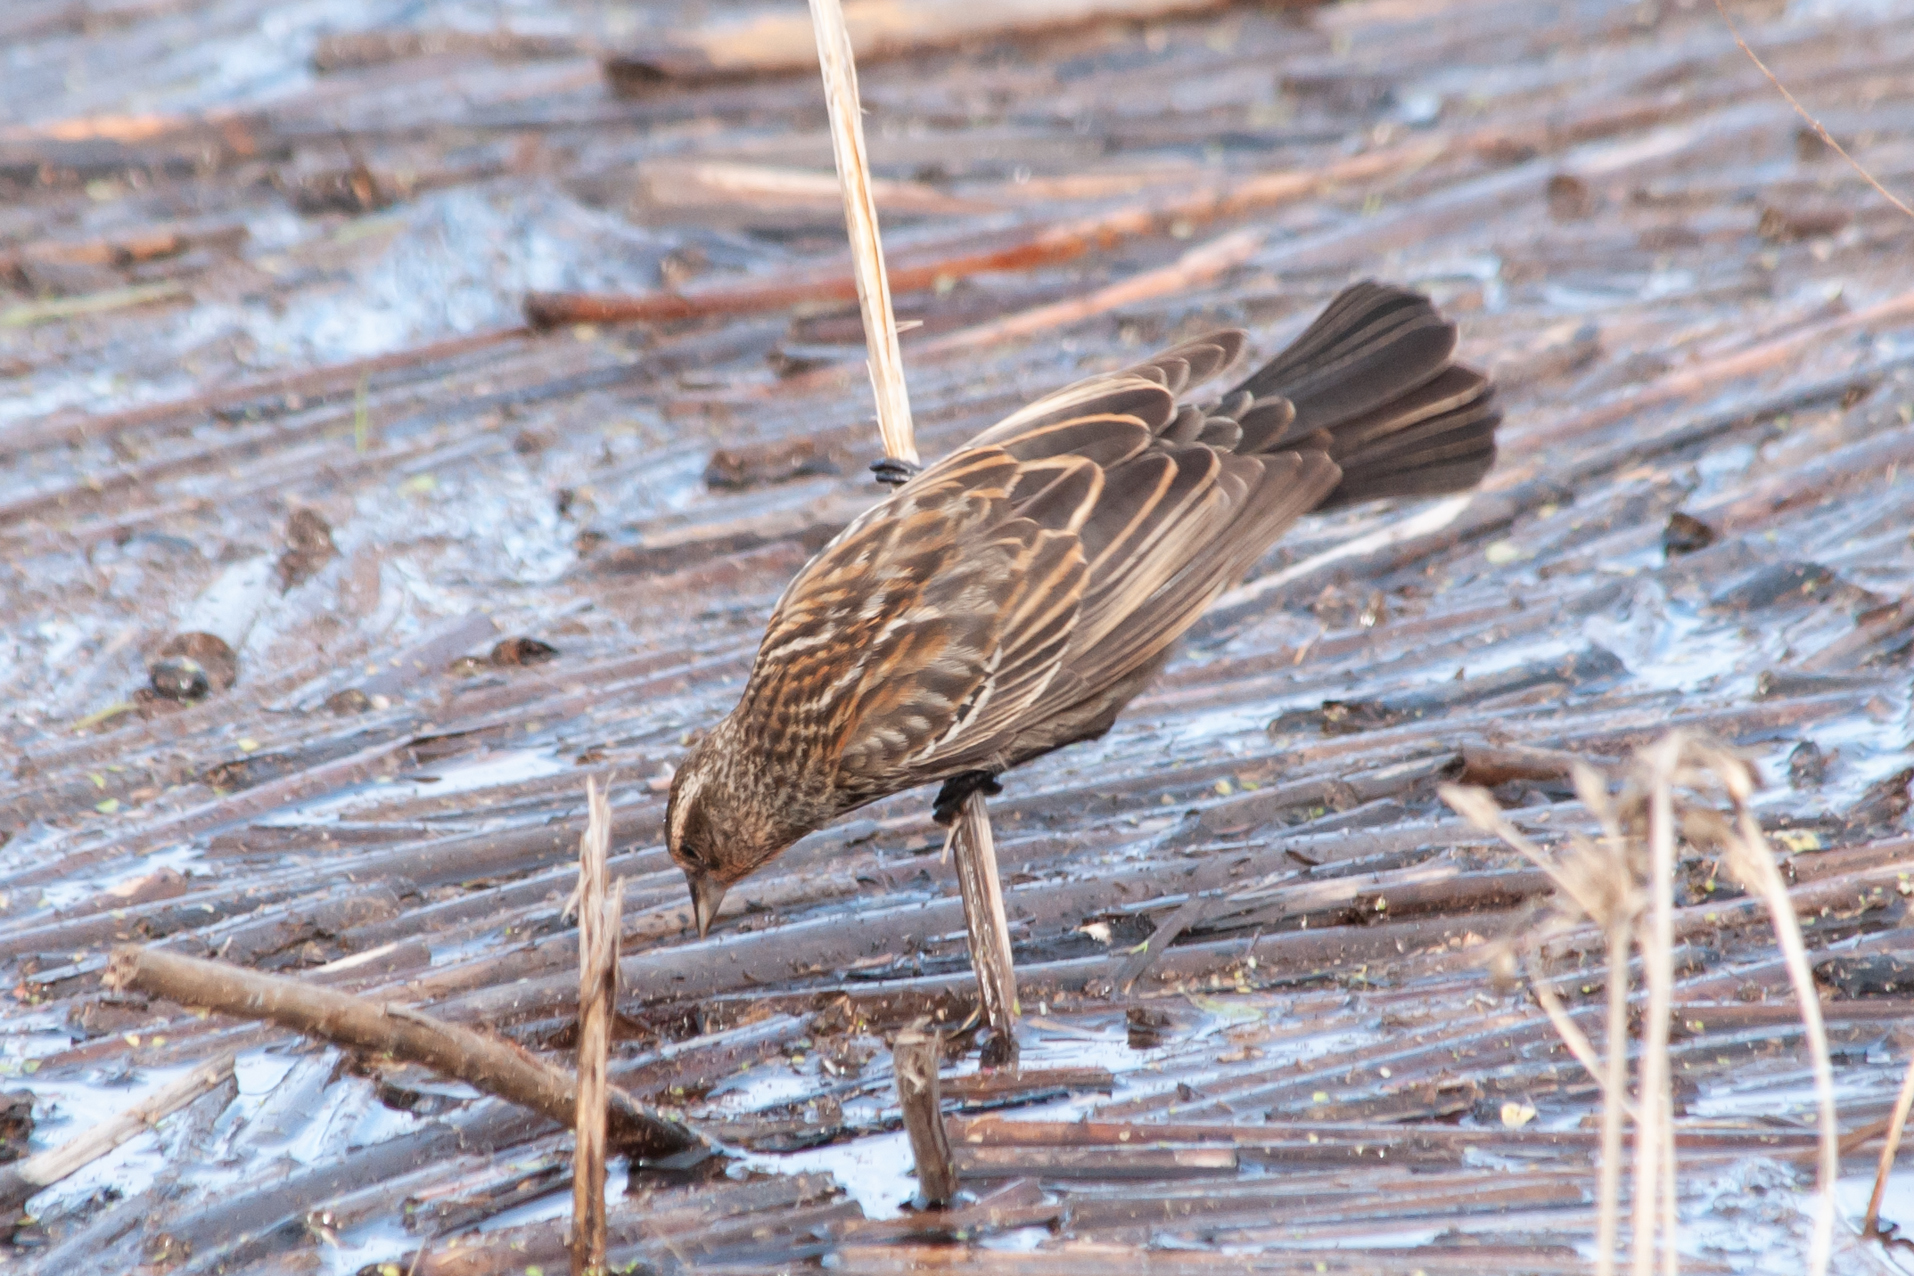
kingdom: Animalia
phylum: Chordata
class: Aves
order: Passeriformes
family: Icteridae
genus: Agelaius
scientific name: Agelaius phoeniceus
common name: Red-winged blackbird
